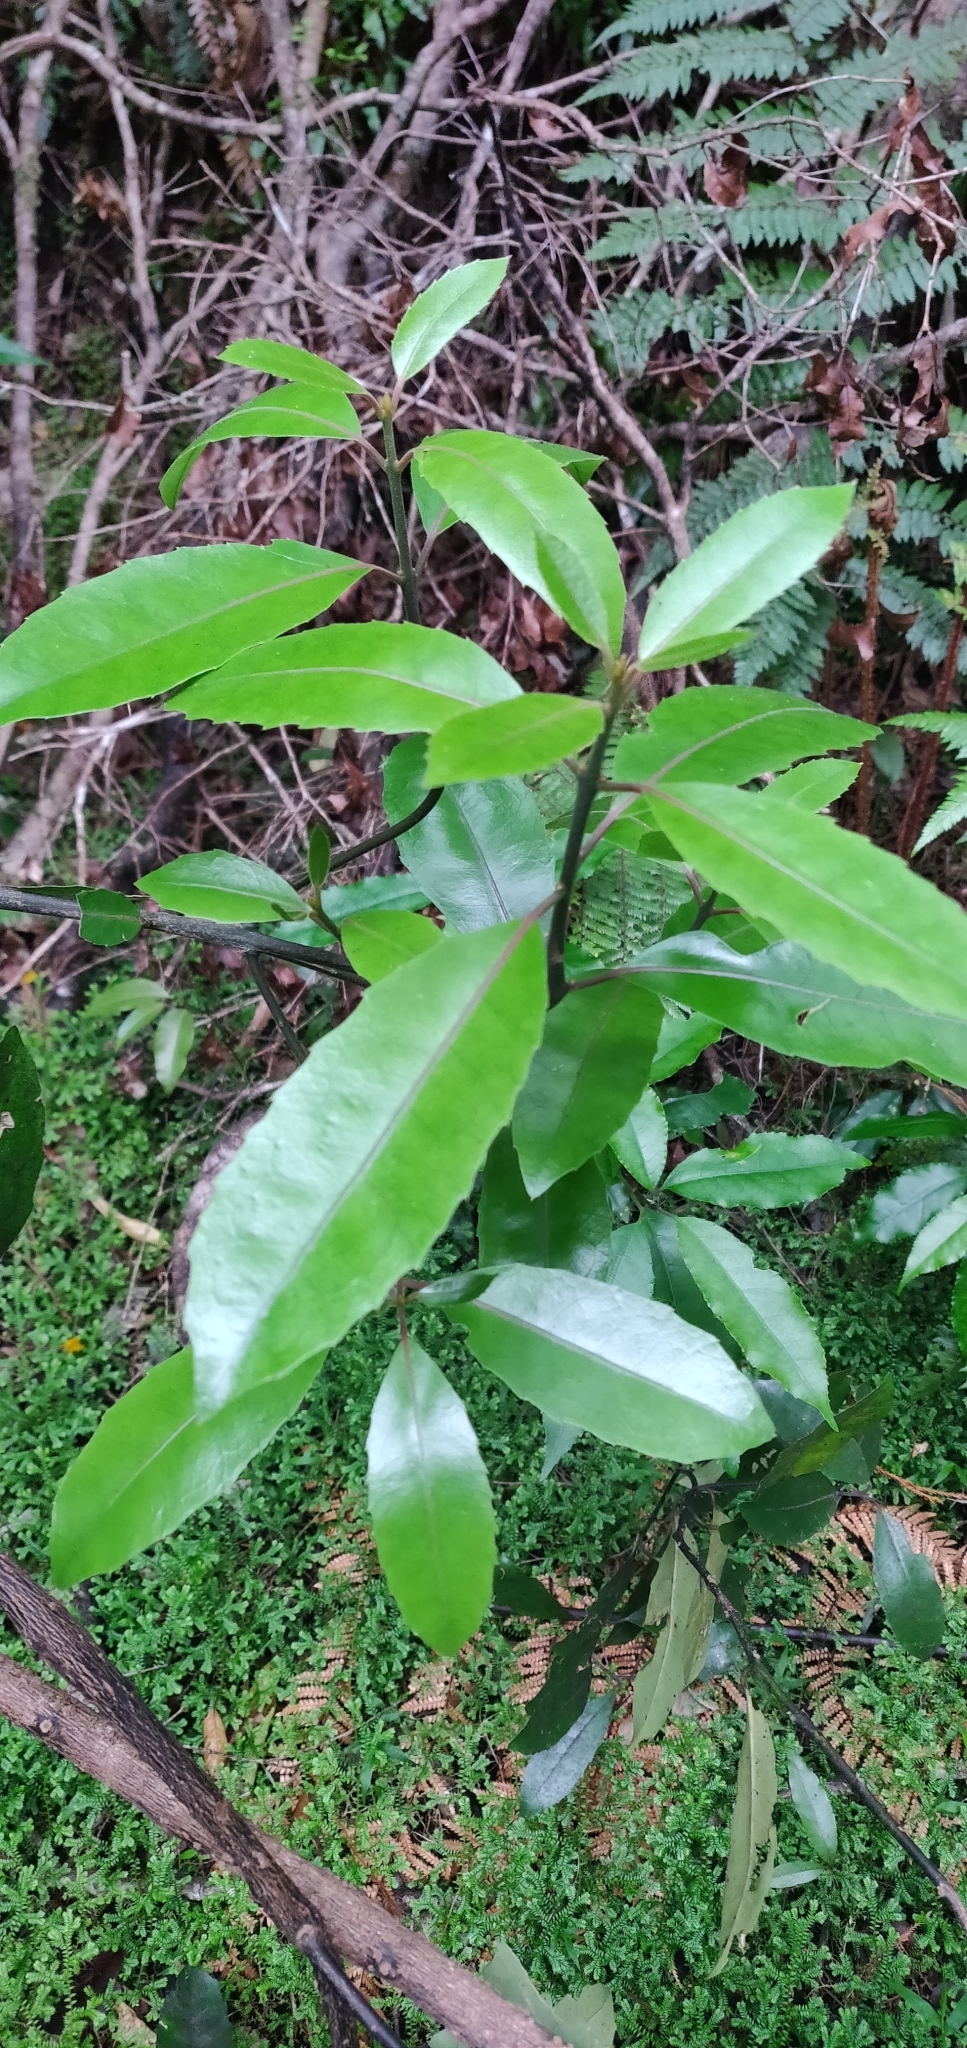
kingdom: Plantae
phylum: Tracheophyta
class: Magnoliopsida
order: Laurales
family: Monimiaceae
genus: Hedycarya
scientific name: Hedycarya arborea
